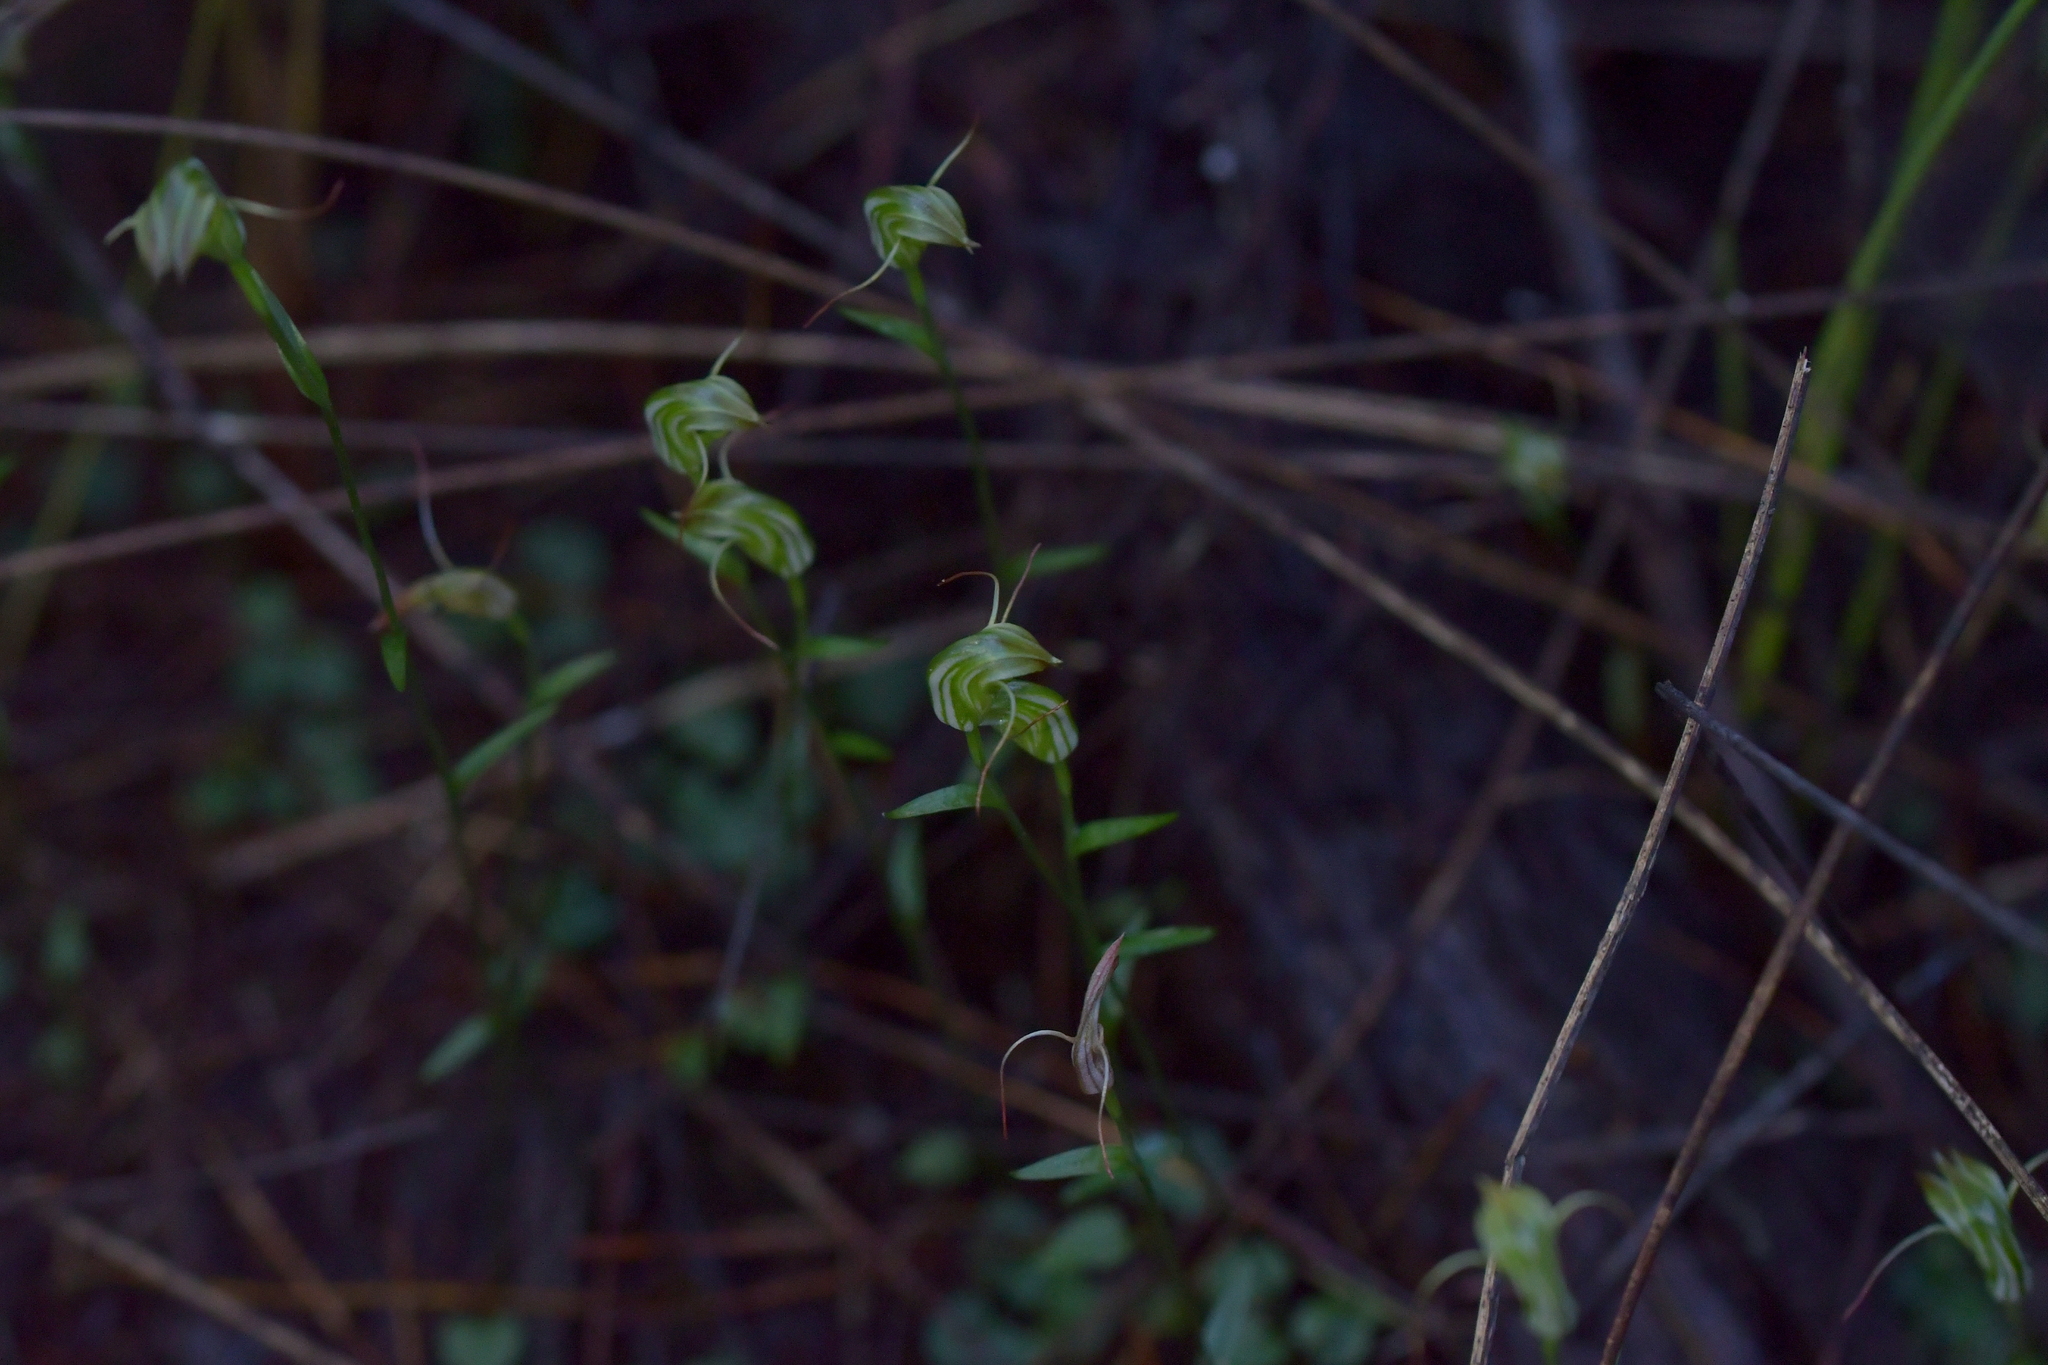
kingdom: Plantae
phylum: Tracheophyta
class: Liliopsida
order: Asparagales
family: Orchidaceae
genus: Pterostylis
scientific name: Pterostylis trullifolia
